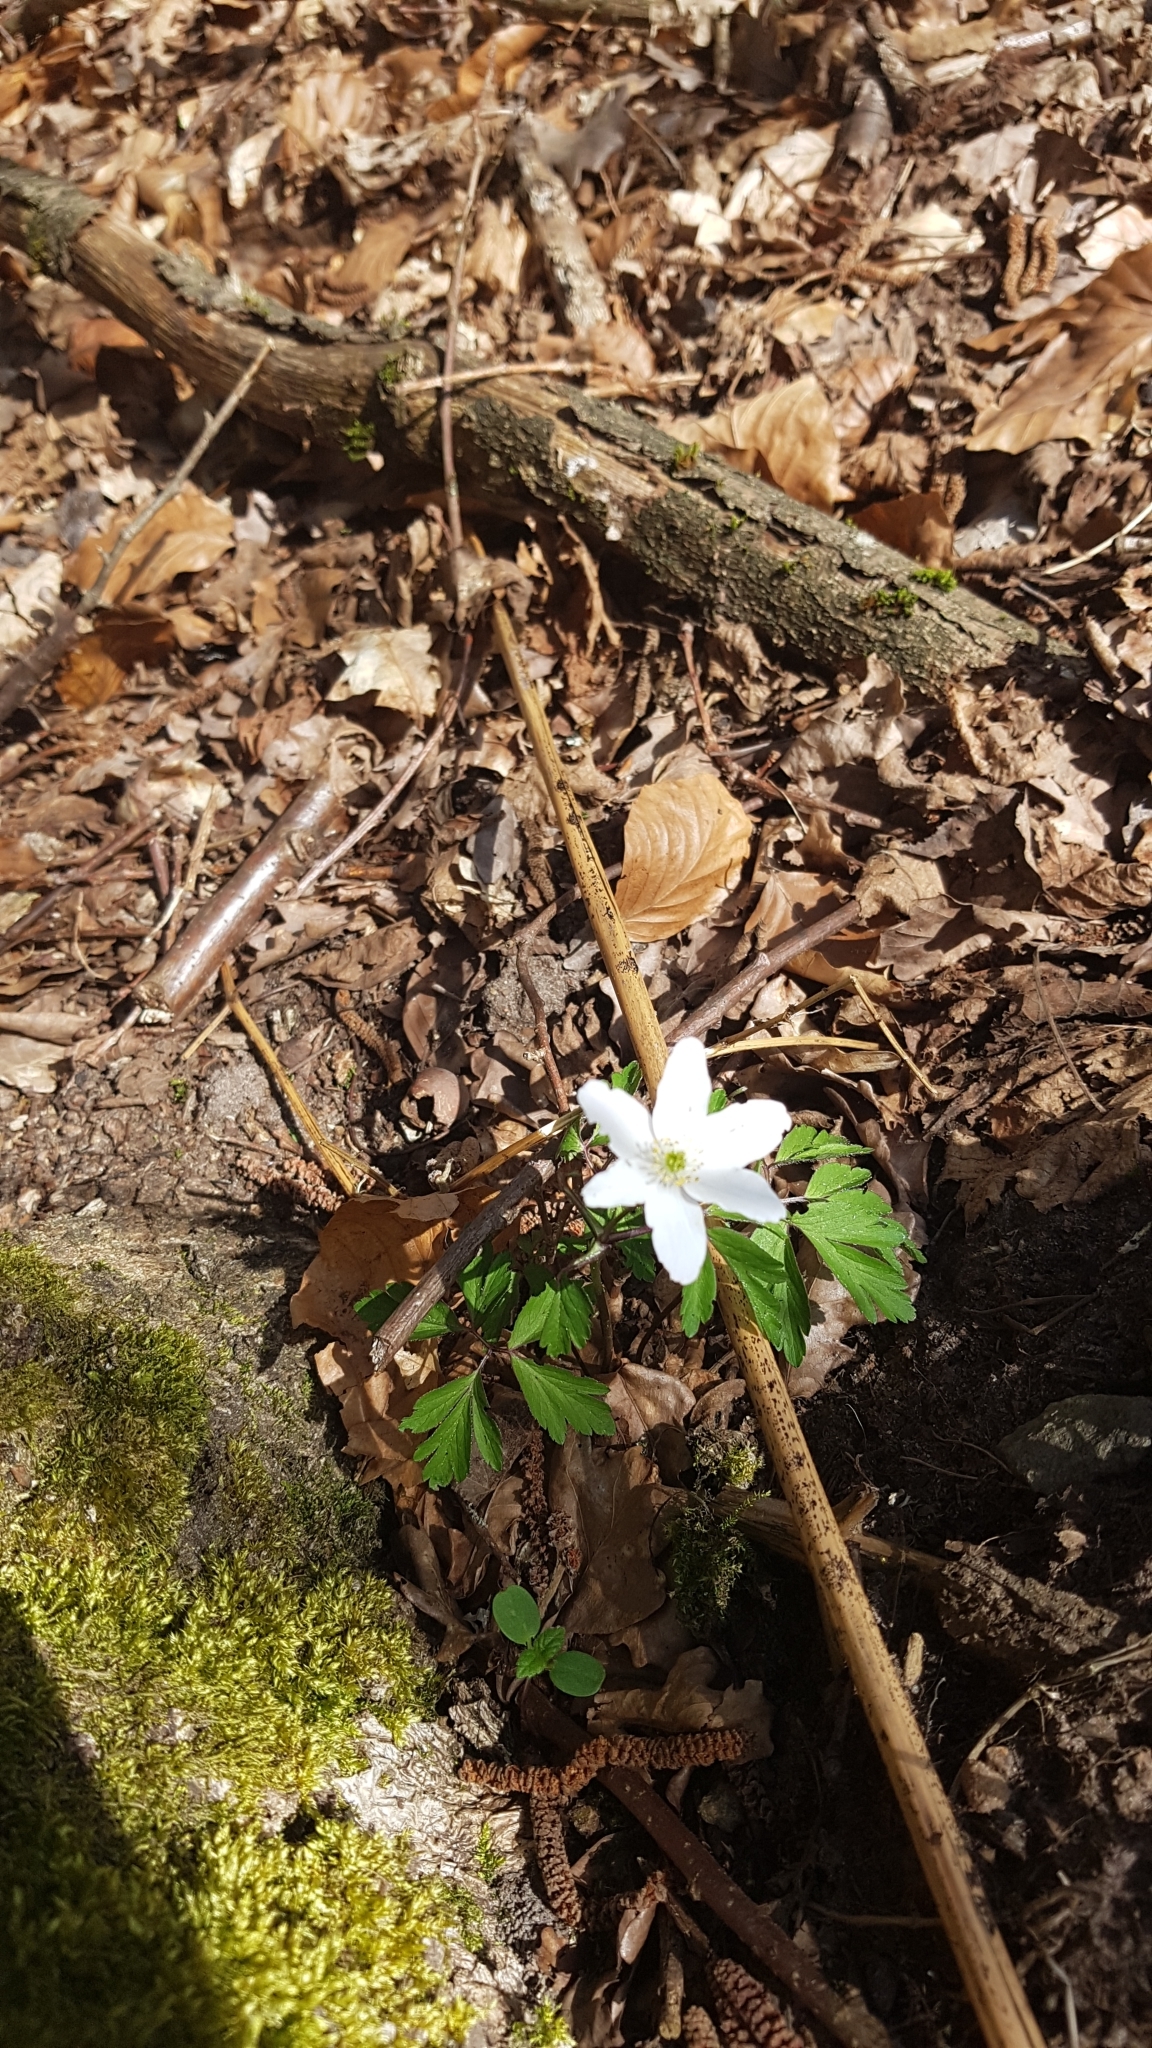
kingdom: Plantae
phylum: Tracheophyta
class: Magnoliopsida
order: Ranunculales
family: Ranunculaceae
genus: Anemone
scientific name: Anemone nemorosa
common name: Wood anemone
